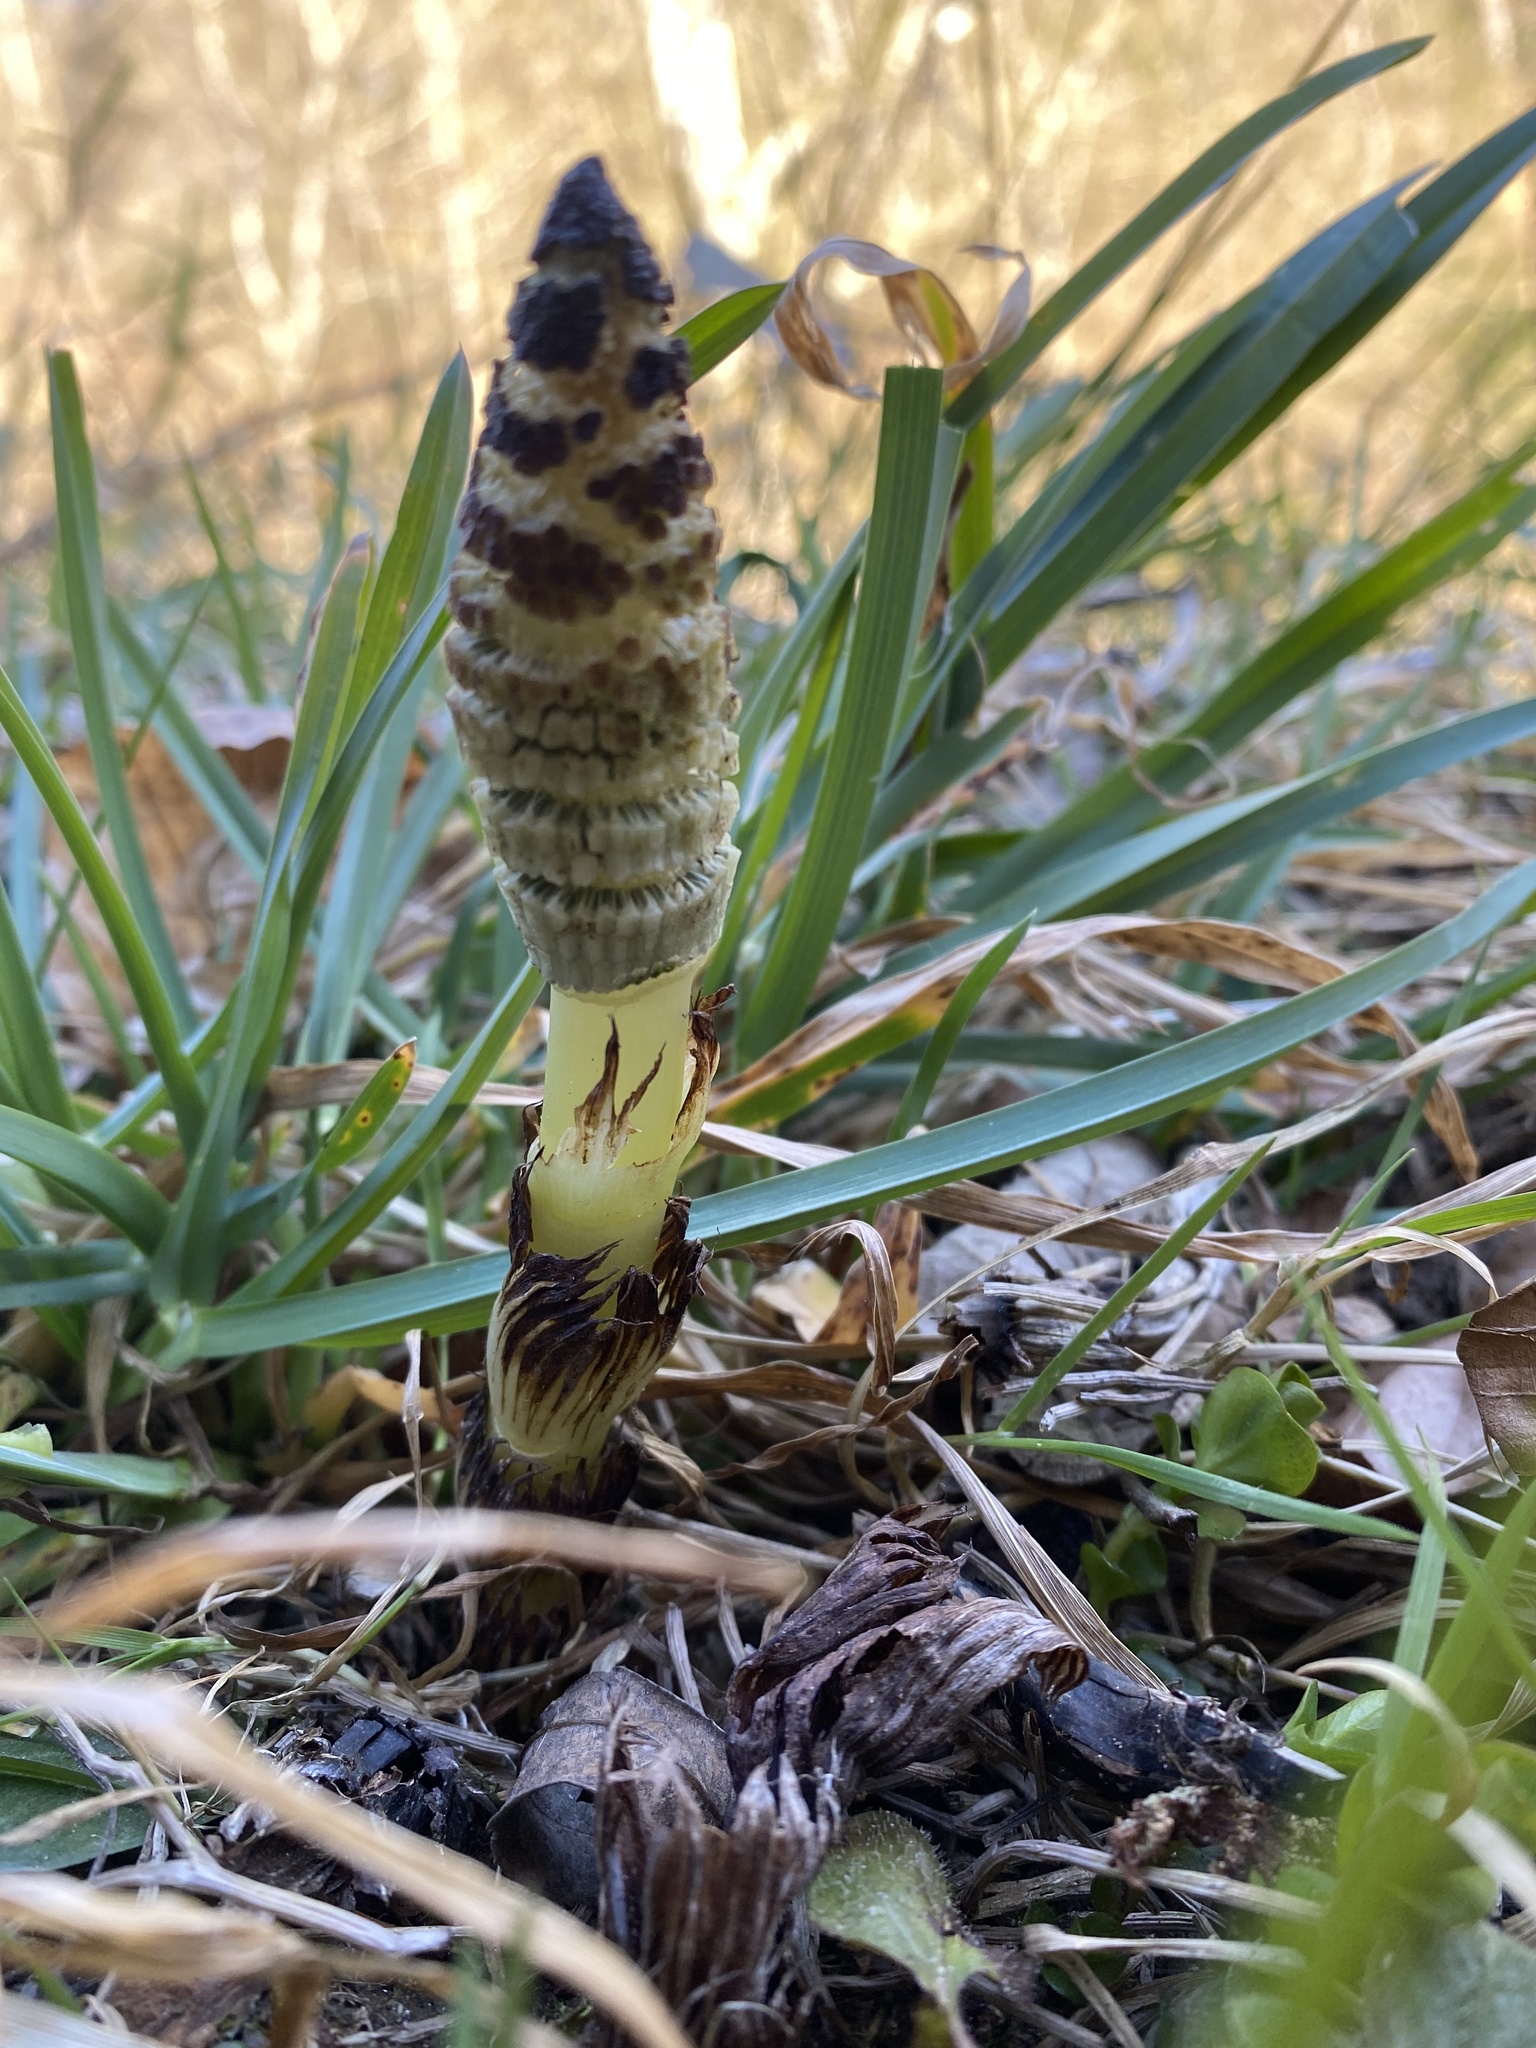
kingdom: Plantae
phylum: Tracheophyta
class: Polypodiopsida
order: Equisetales
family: Equisetaceae
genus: Equisetum
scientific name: Equisetum telmateia
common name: Great horsetail
